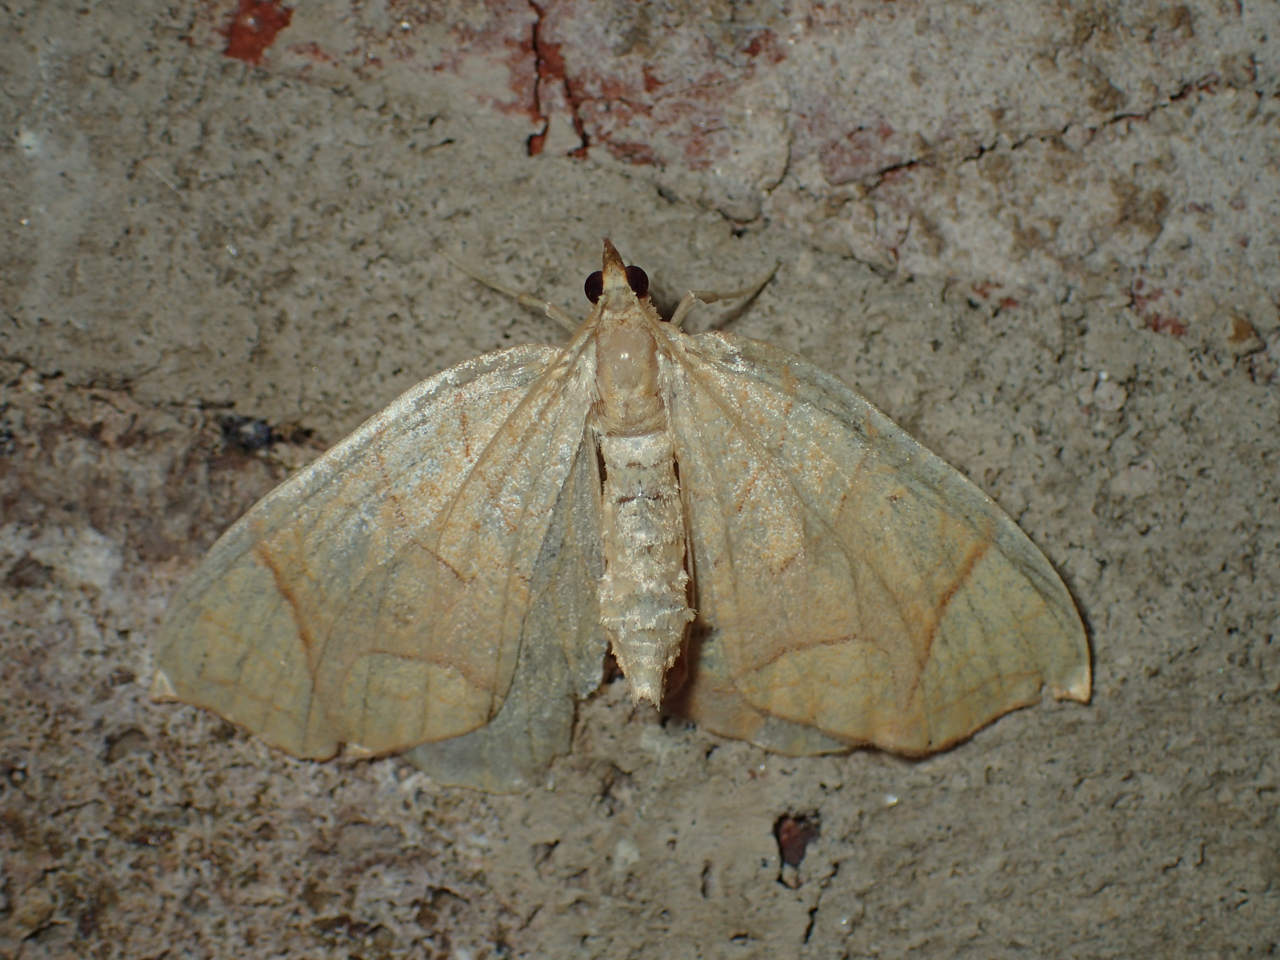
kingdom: Animalia
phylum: Arthropoda
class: Insecta
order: Lepidoptera
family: Geometridae
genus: Eulithis
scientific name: Eulithis
